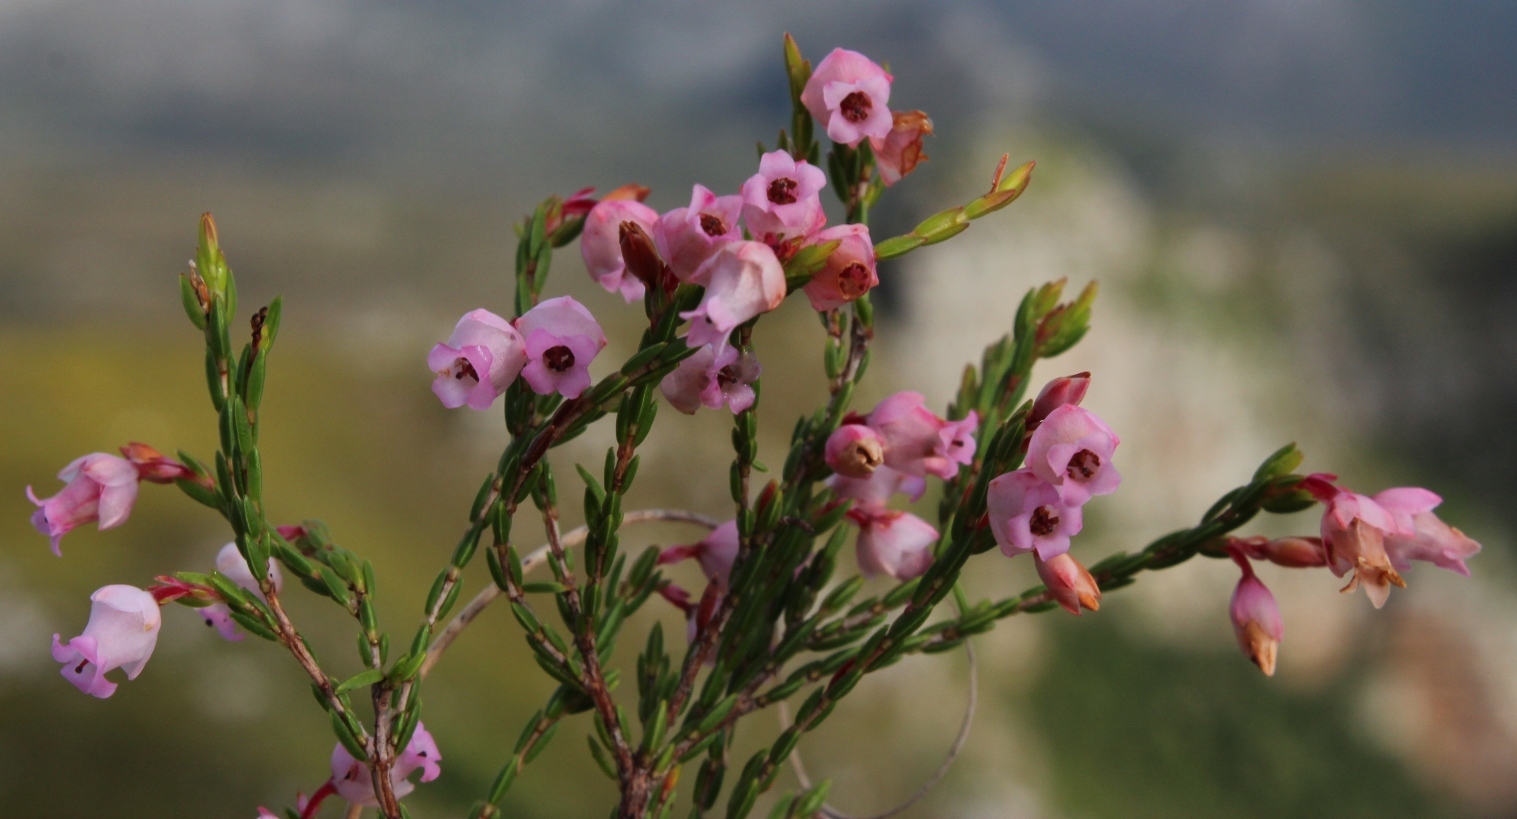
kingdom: Plantae
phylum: Tracheophyta
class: Magnoliopsida
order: Ericales
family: Ericaceae
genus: Erica
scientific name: Erica tenuifolia
